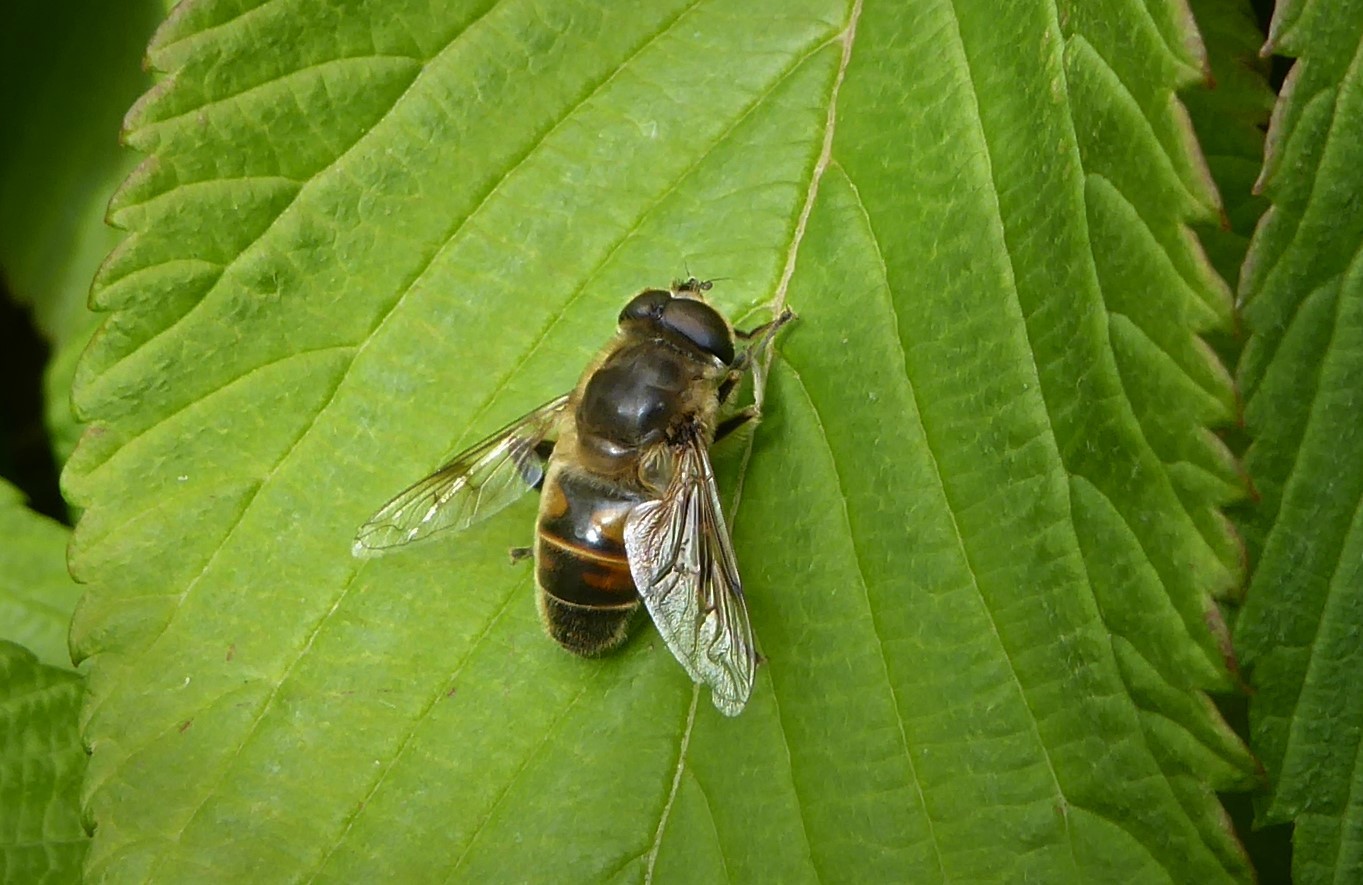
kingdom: Animalia
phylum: Arthropoda
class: Insecta
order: Diptera
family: Syrphidae
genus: Eristalis
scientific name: Eristalis tenax
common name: Drone fly
